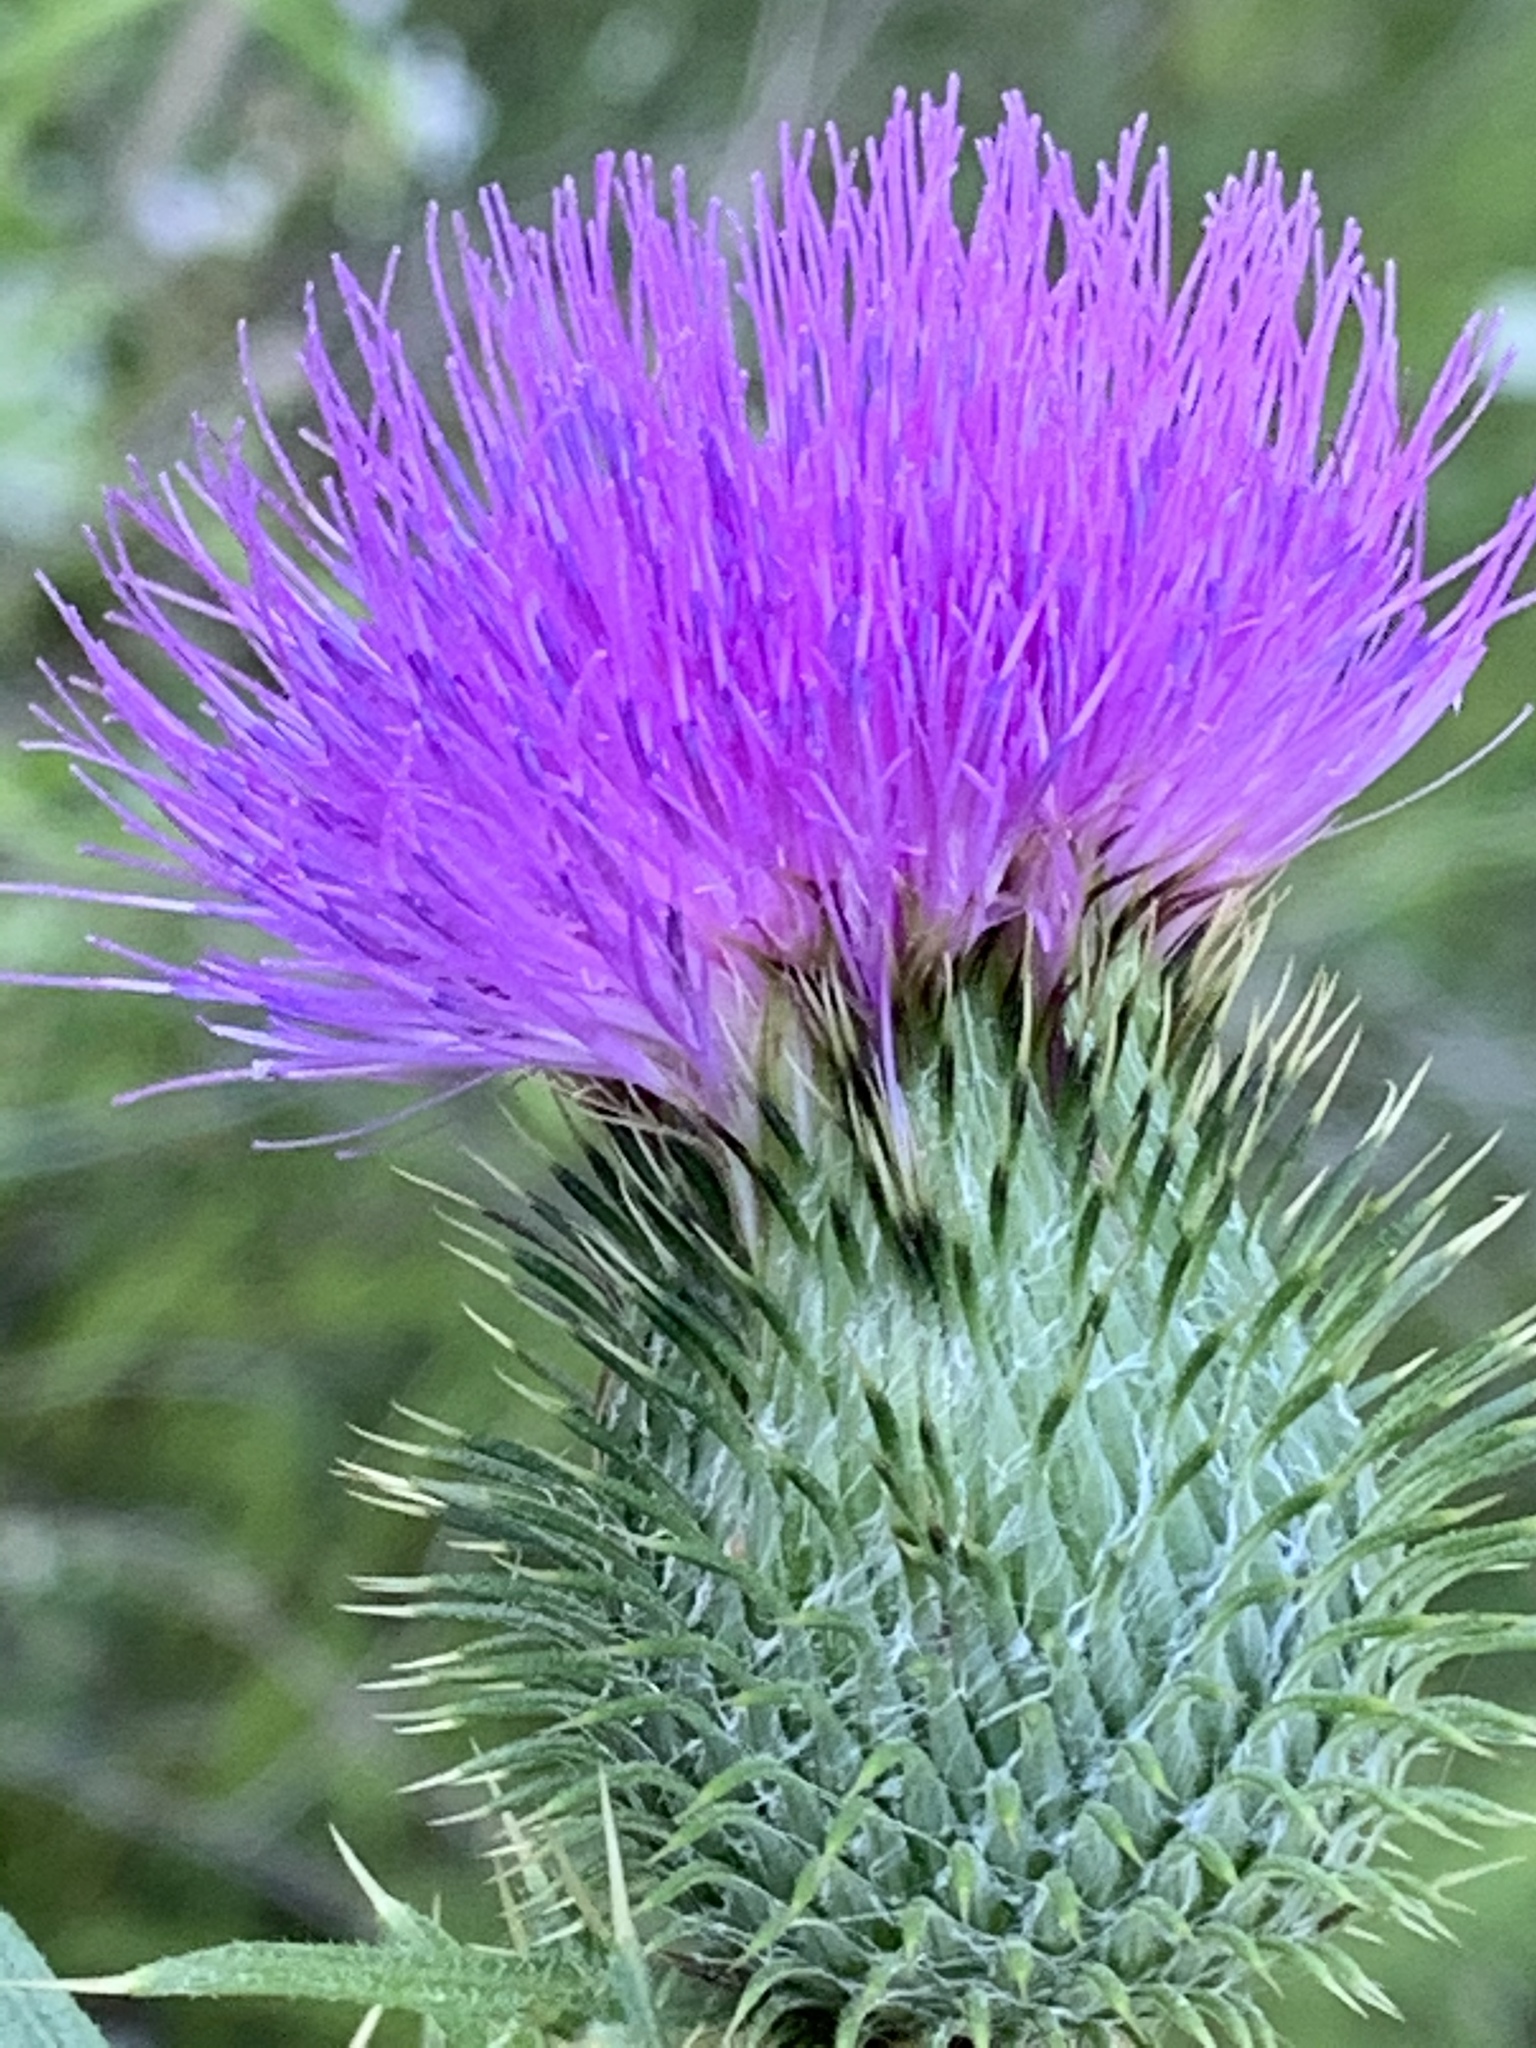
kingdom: Plantae
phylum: Tracheophyta
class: Magnoliopsida
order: Asterales
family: Asteraceae
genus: Cirsium
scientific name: Cirsium vulgare
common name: Bull thistle
